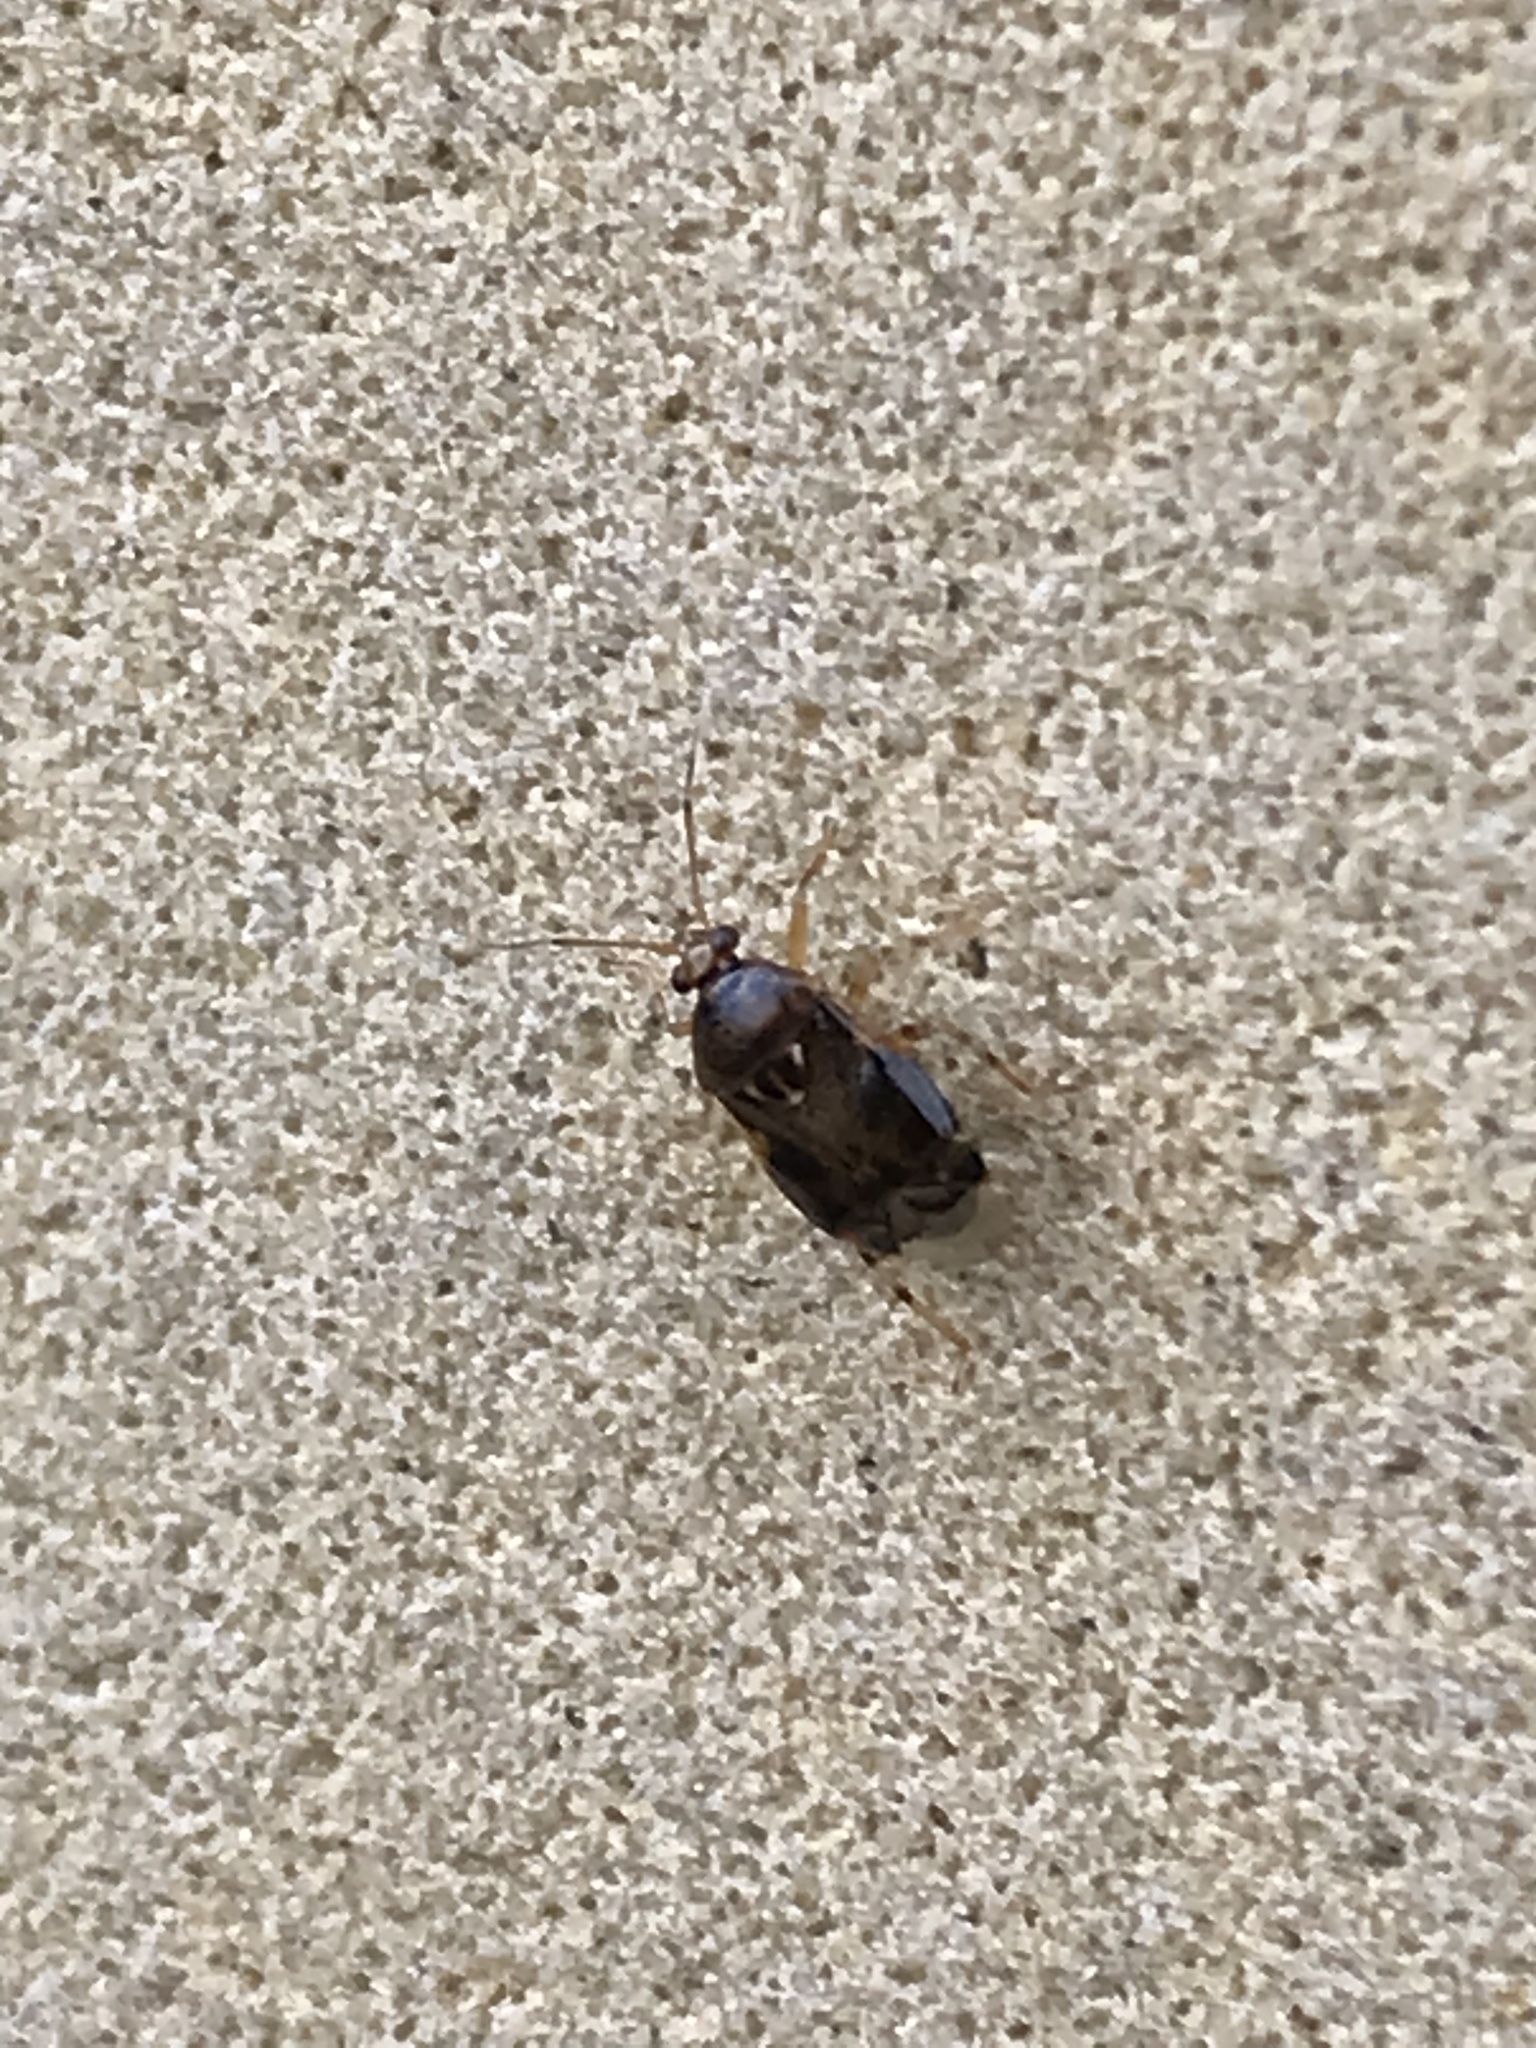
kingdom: Animalia
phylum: Arthropoda
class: Insecta
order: Hemiptera
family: Miridae
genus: Deraeocoris
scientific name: Deraeocoris lutescens
